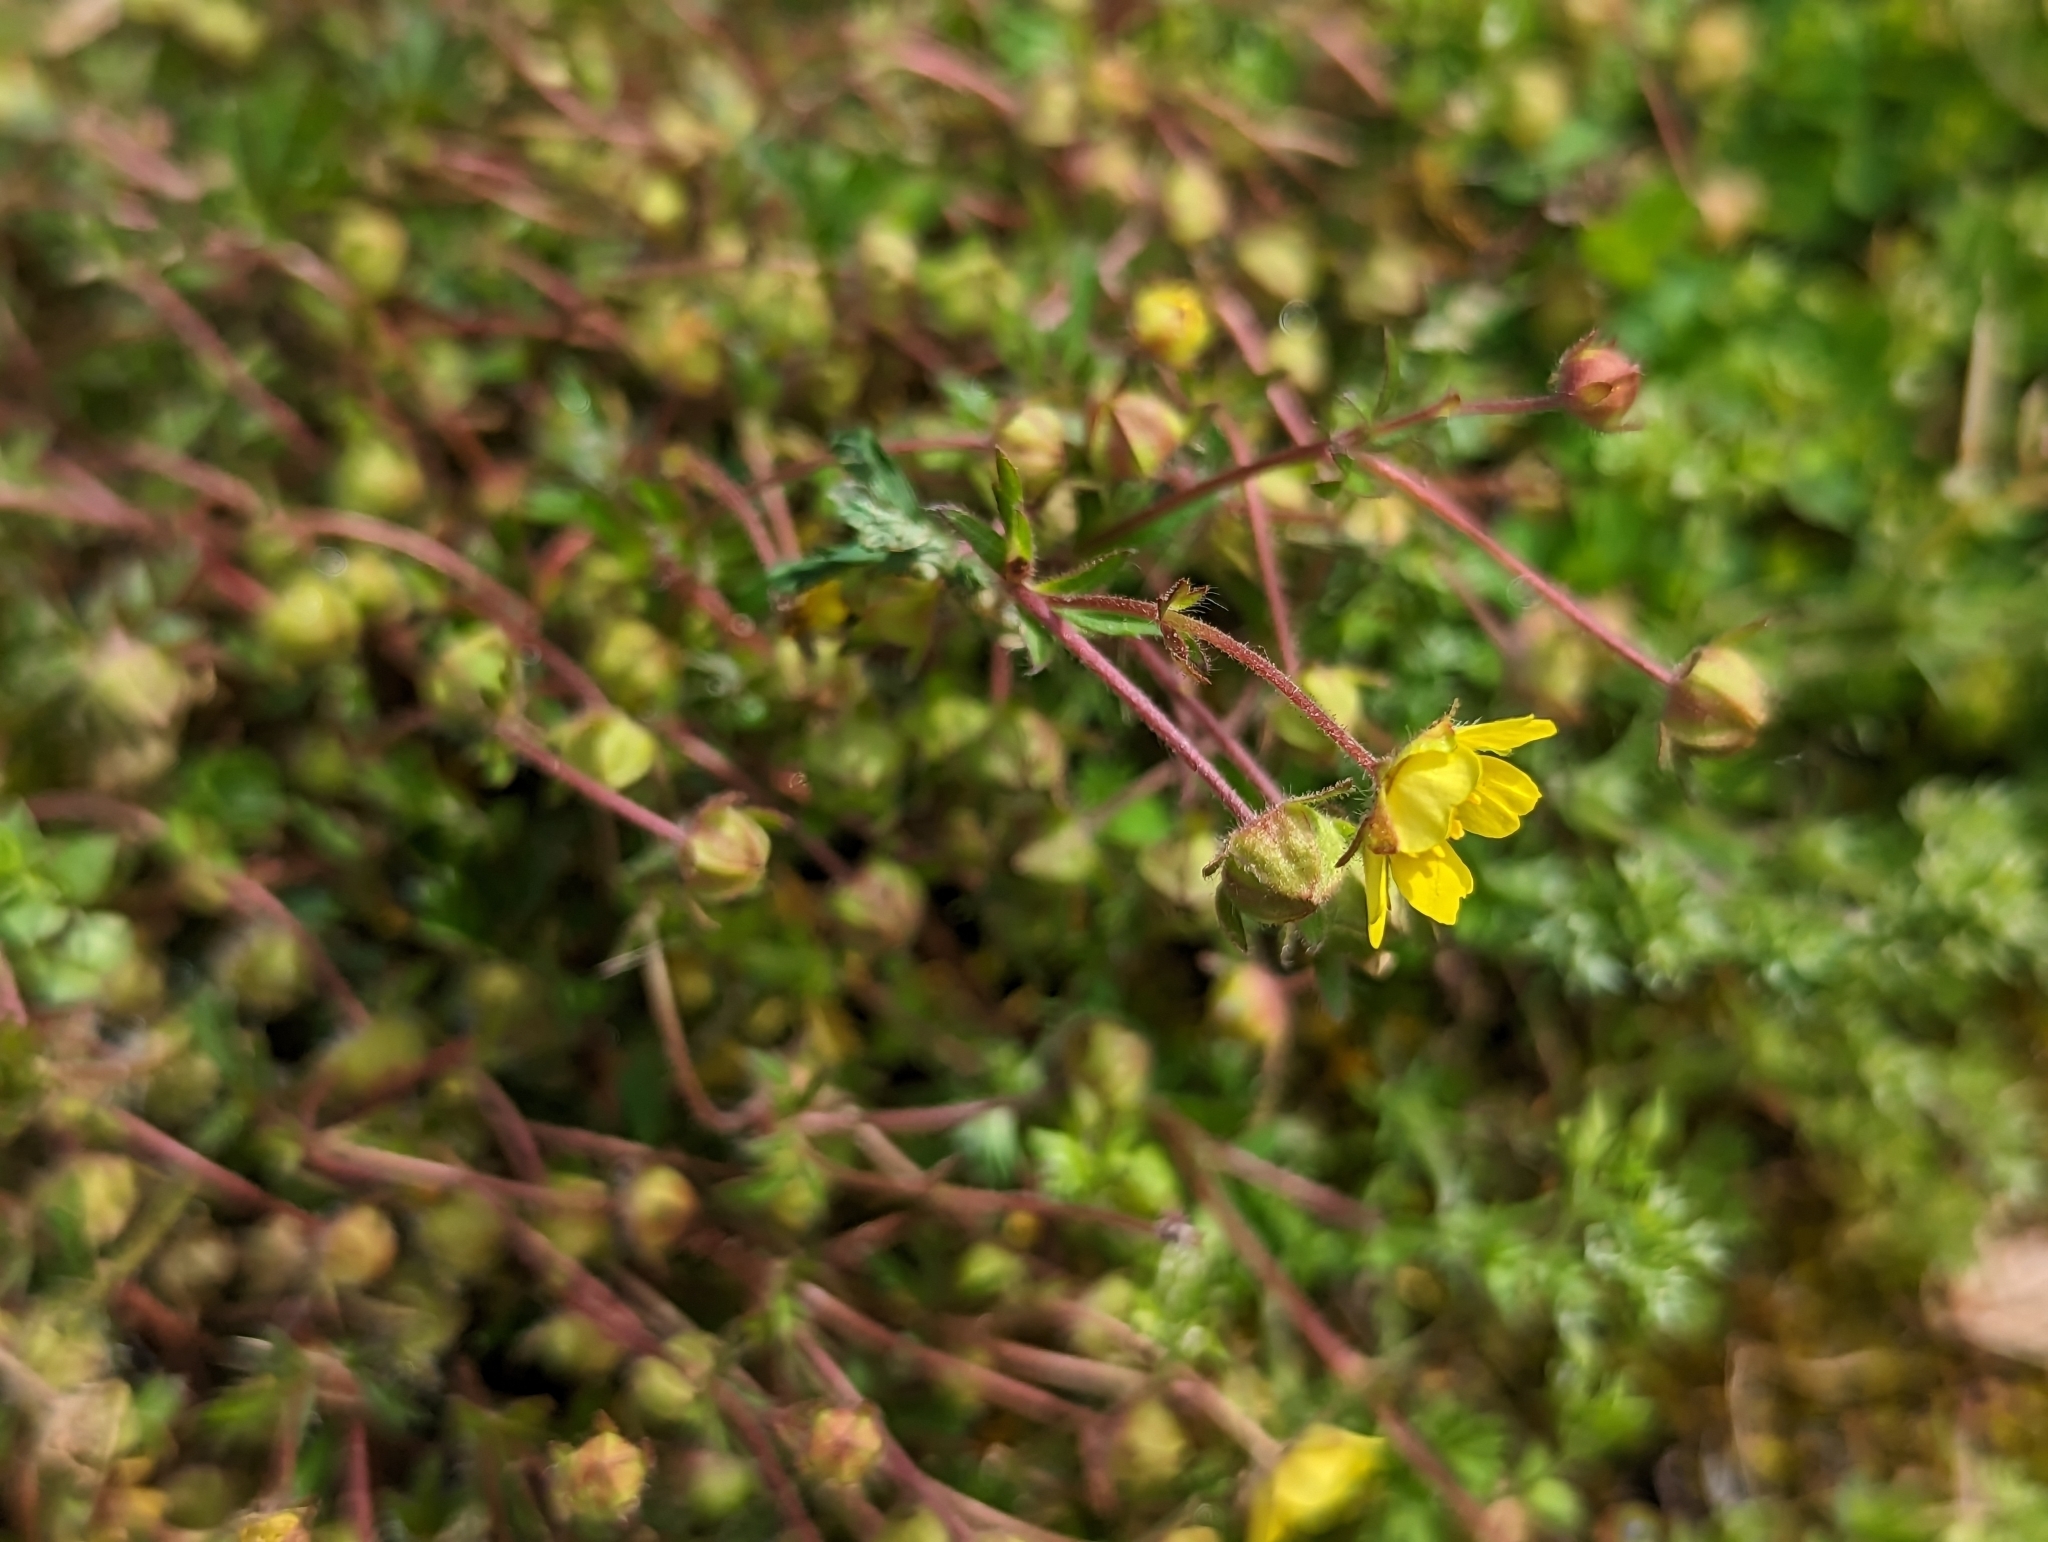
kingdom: Plantae
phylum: Tracheophyta
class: Magnoliopsida
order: Rosales
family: Rosaceae
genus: Potentilla
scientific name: Potentilla heptaphylla
